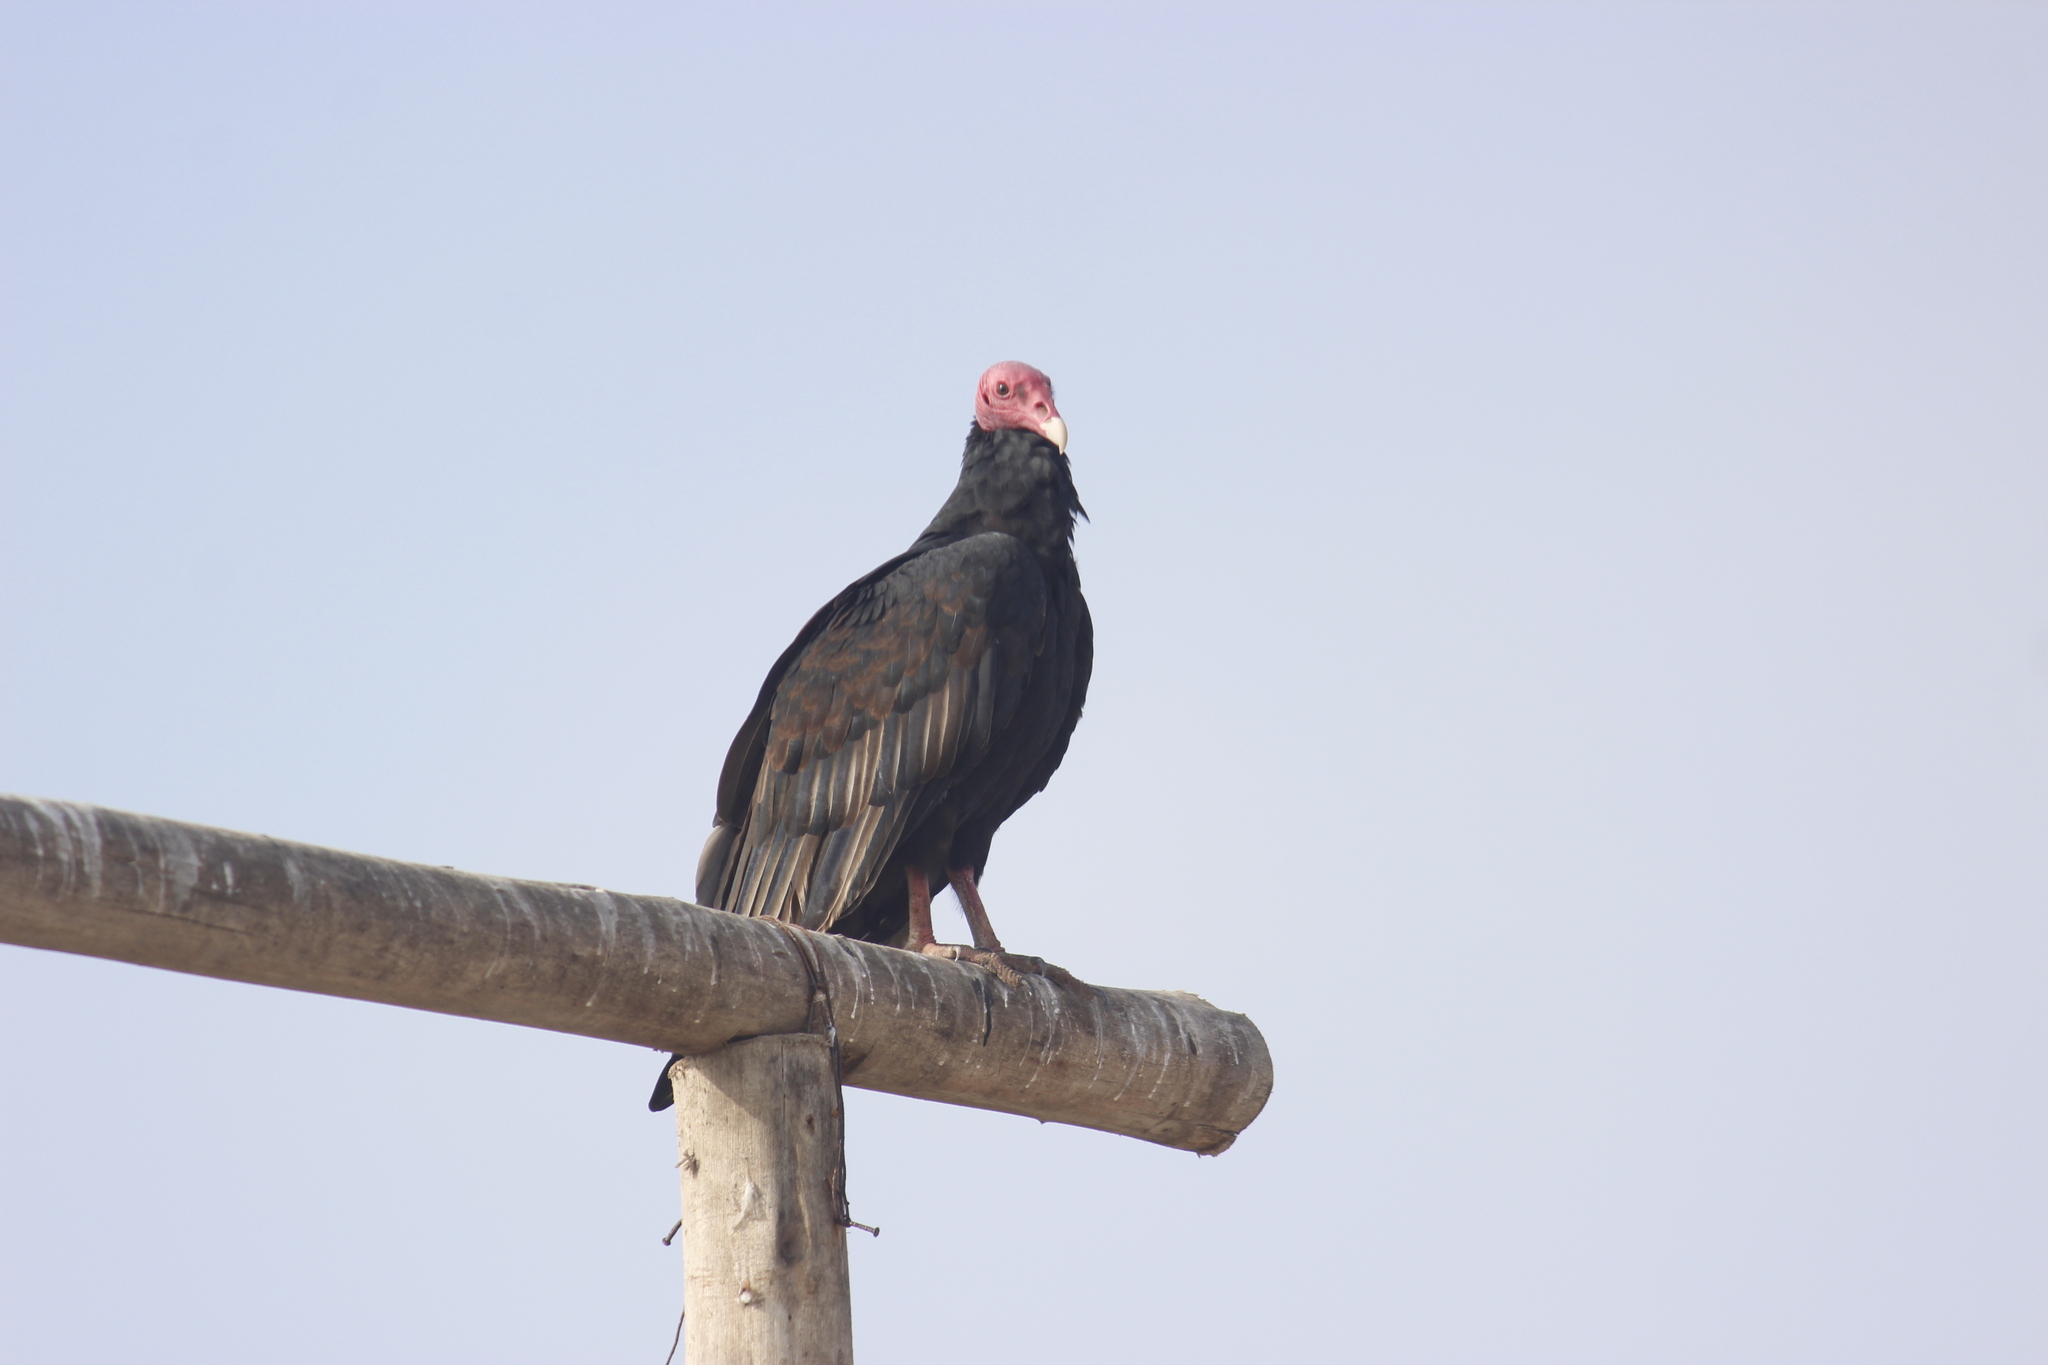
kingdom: Animalia
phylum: Chordata
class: Aves
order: Accipitriformes
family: Cathartidae
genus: Cathartes
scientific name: Cathartes aura
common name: Turkey vulture
